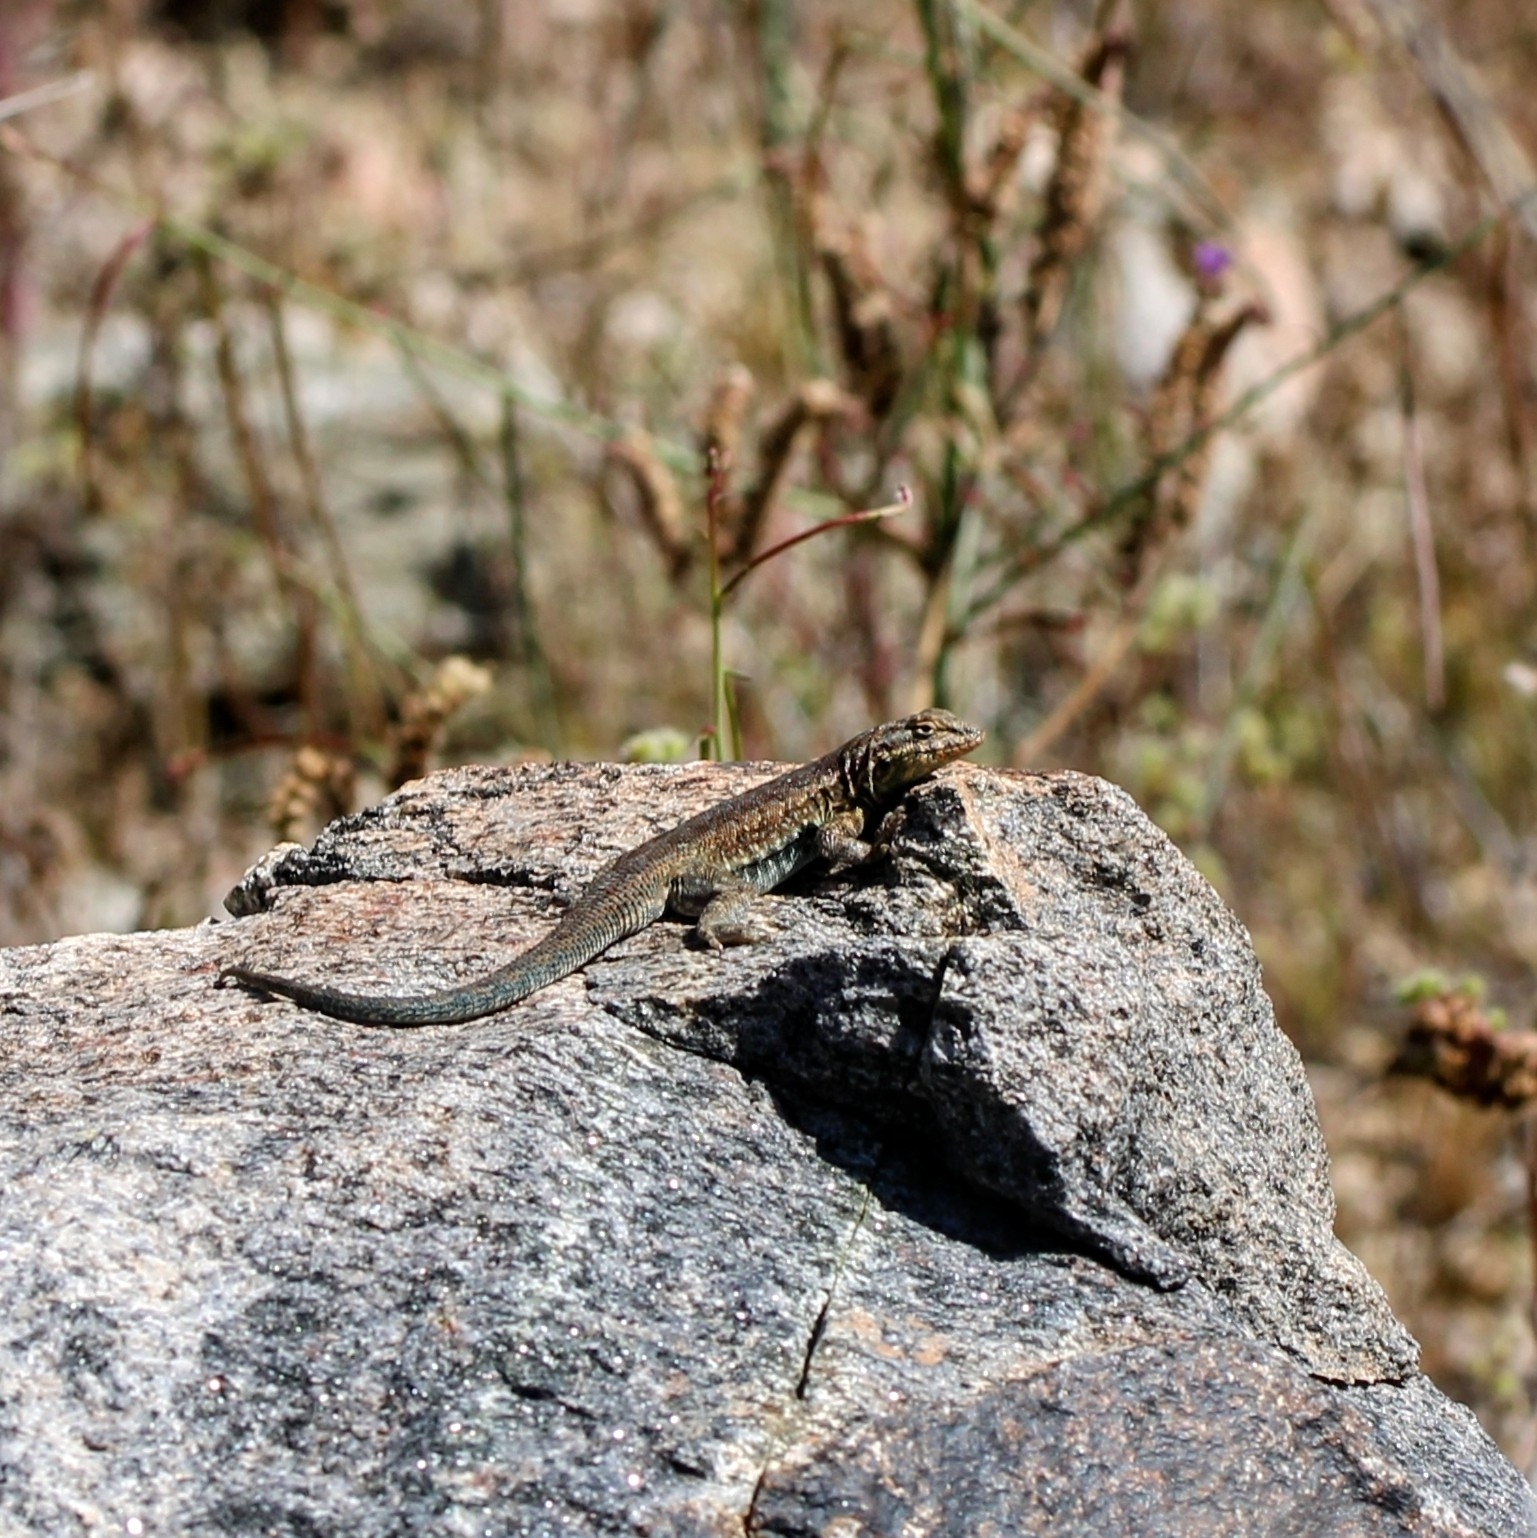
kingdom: Animalia
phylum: Chordata
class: Squamata
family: Phrynosomatidae
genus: Uta
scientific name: Uta stansburiana
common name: Side-blotched lizard
